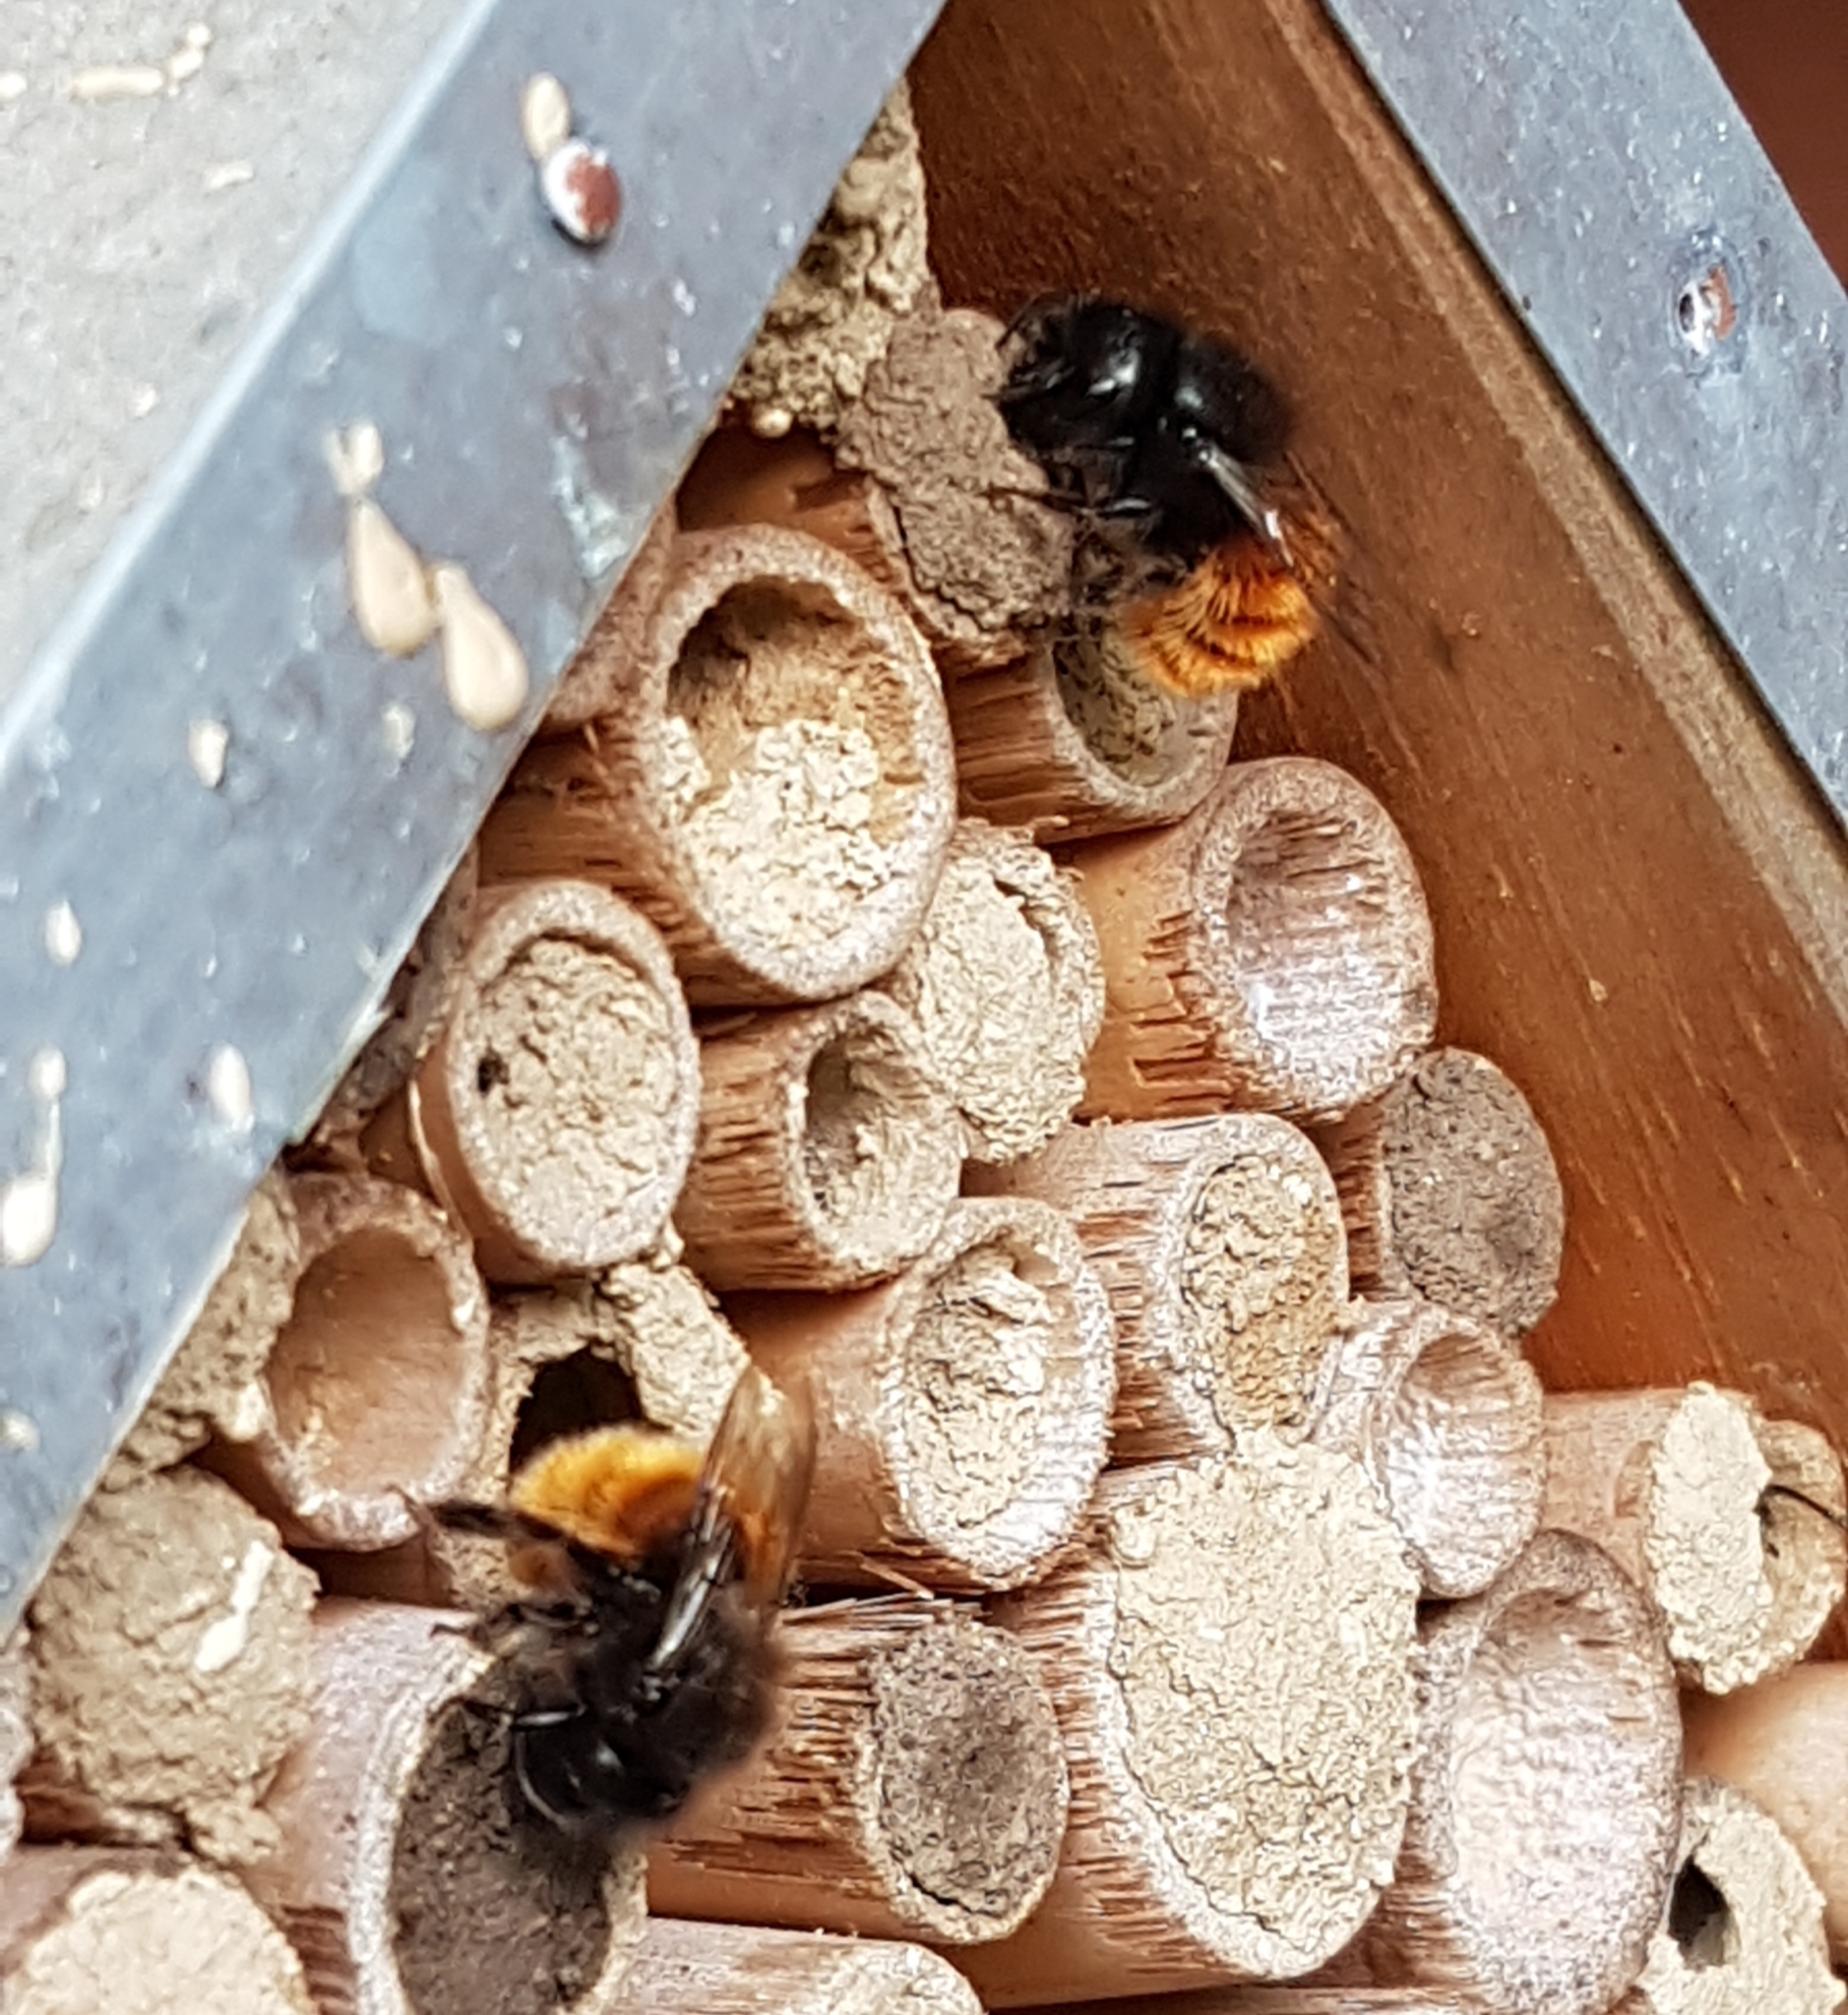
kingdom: Animalia
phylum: Arthropoda
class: Insecta
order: Hymenoptera
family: Megachilidae
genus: Osmia
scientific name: Osmia cornuta
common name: Mason bee
